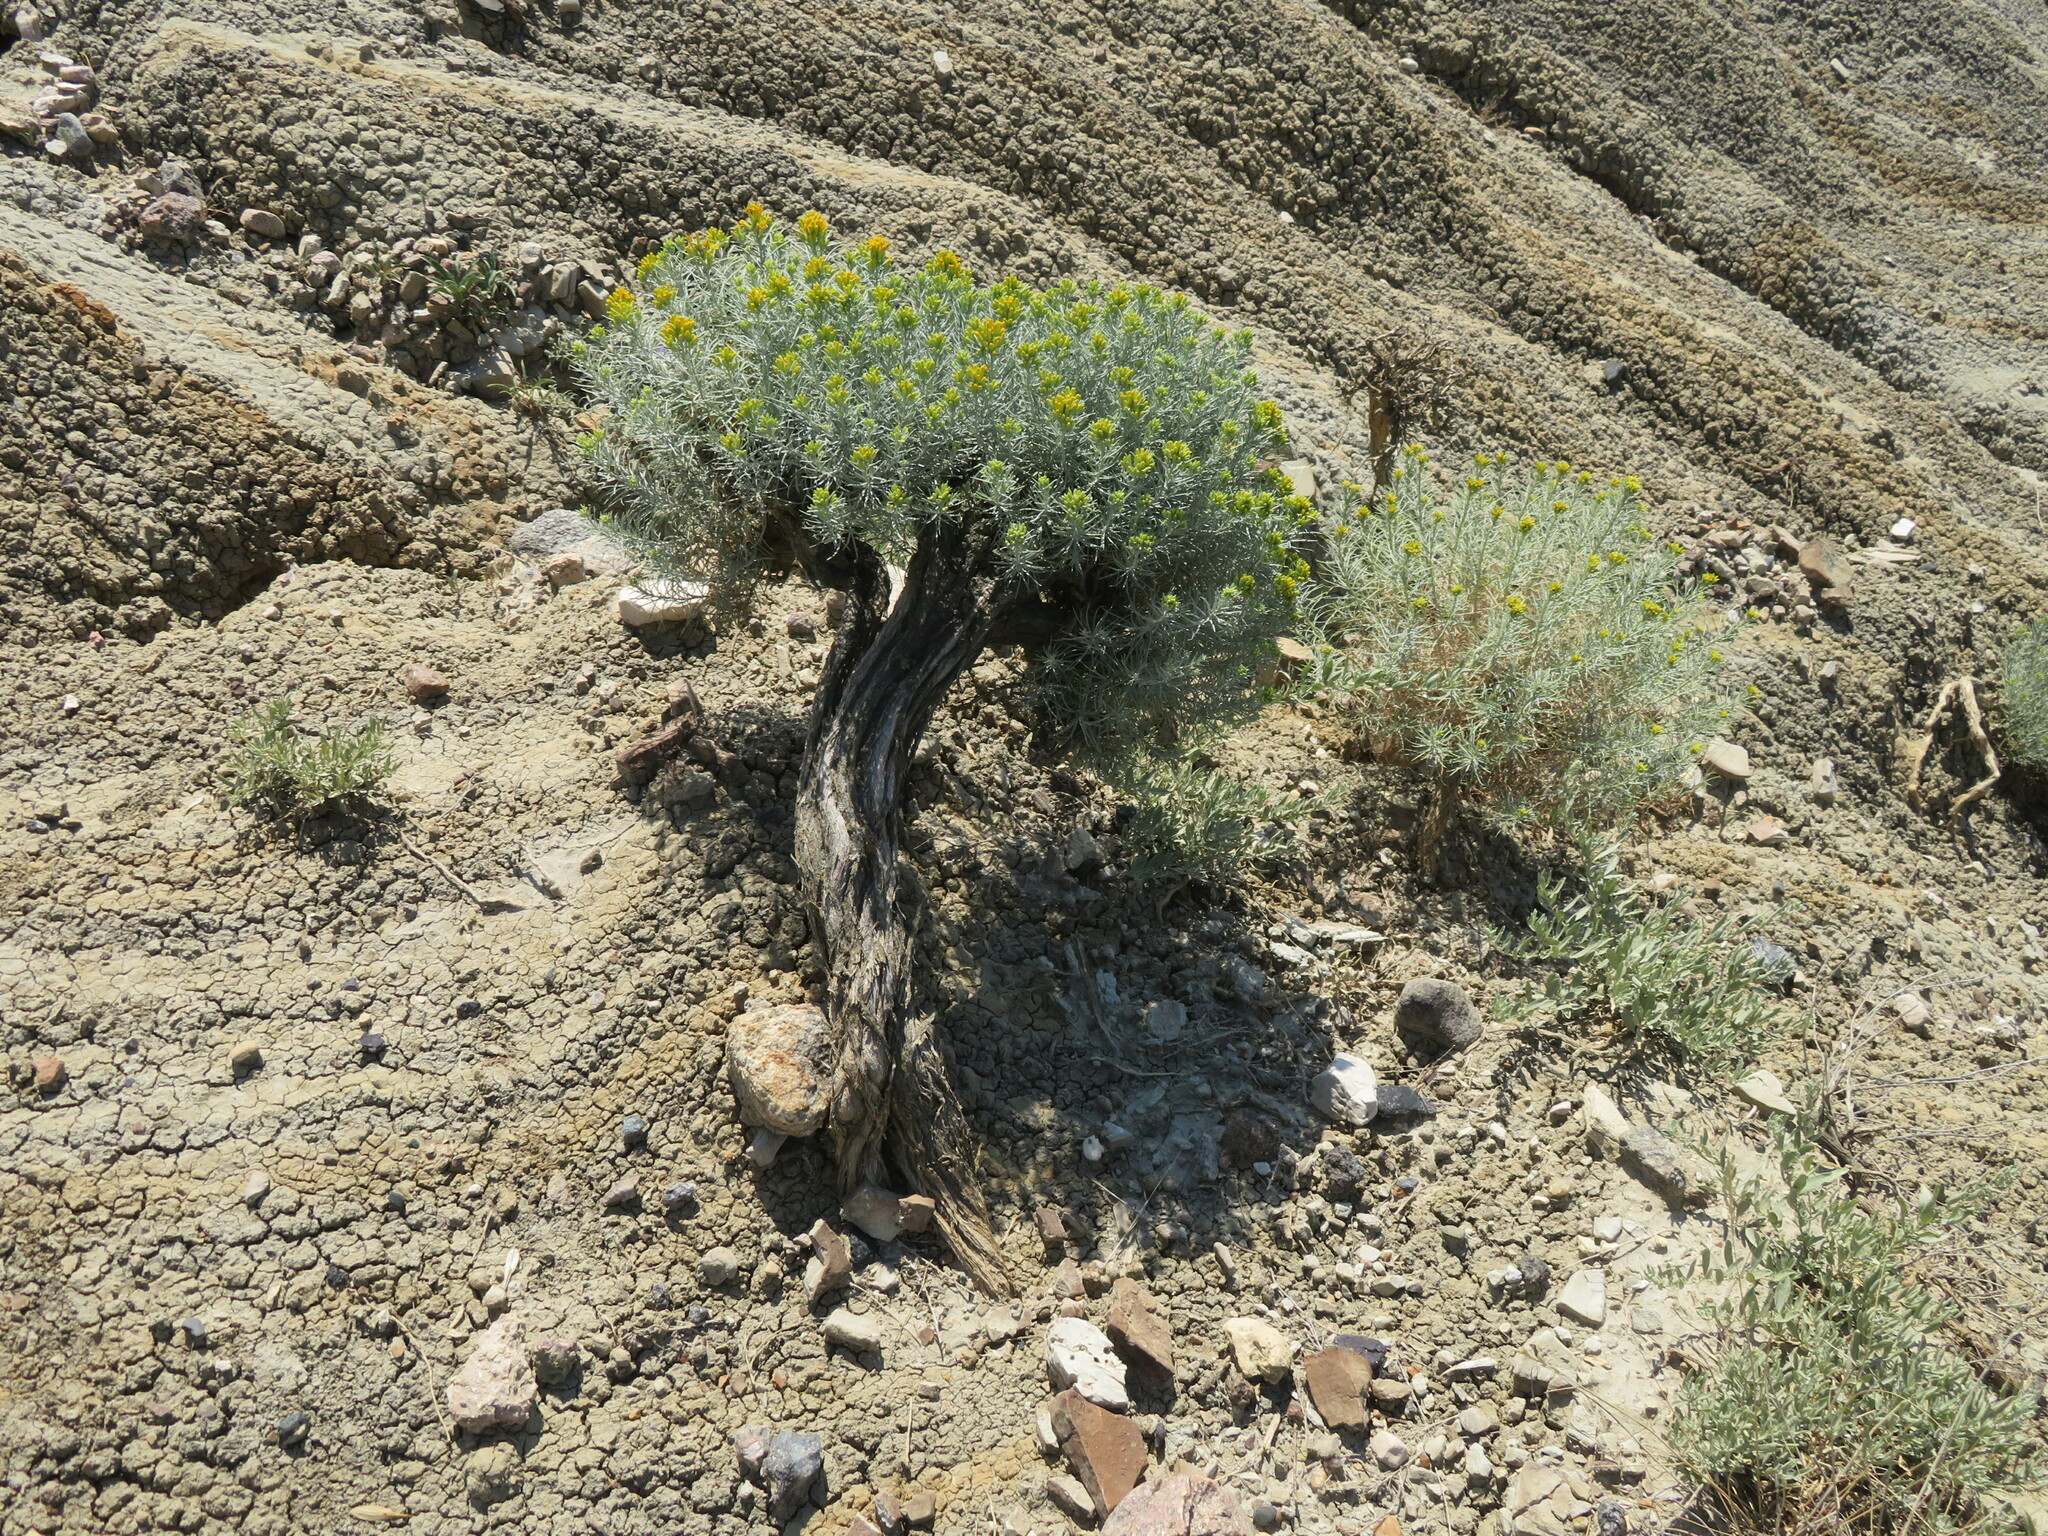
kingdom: Plantae
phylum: Tracheophyta
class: Magnoliopsida
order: Asterales
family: Asteraceae
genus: Ericameria
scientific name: Ericameria nauseosa
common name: Rubber rabbitbrush
